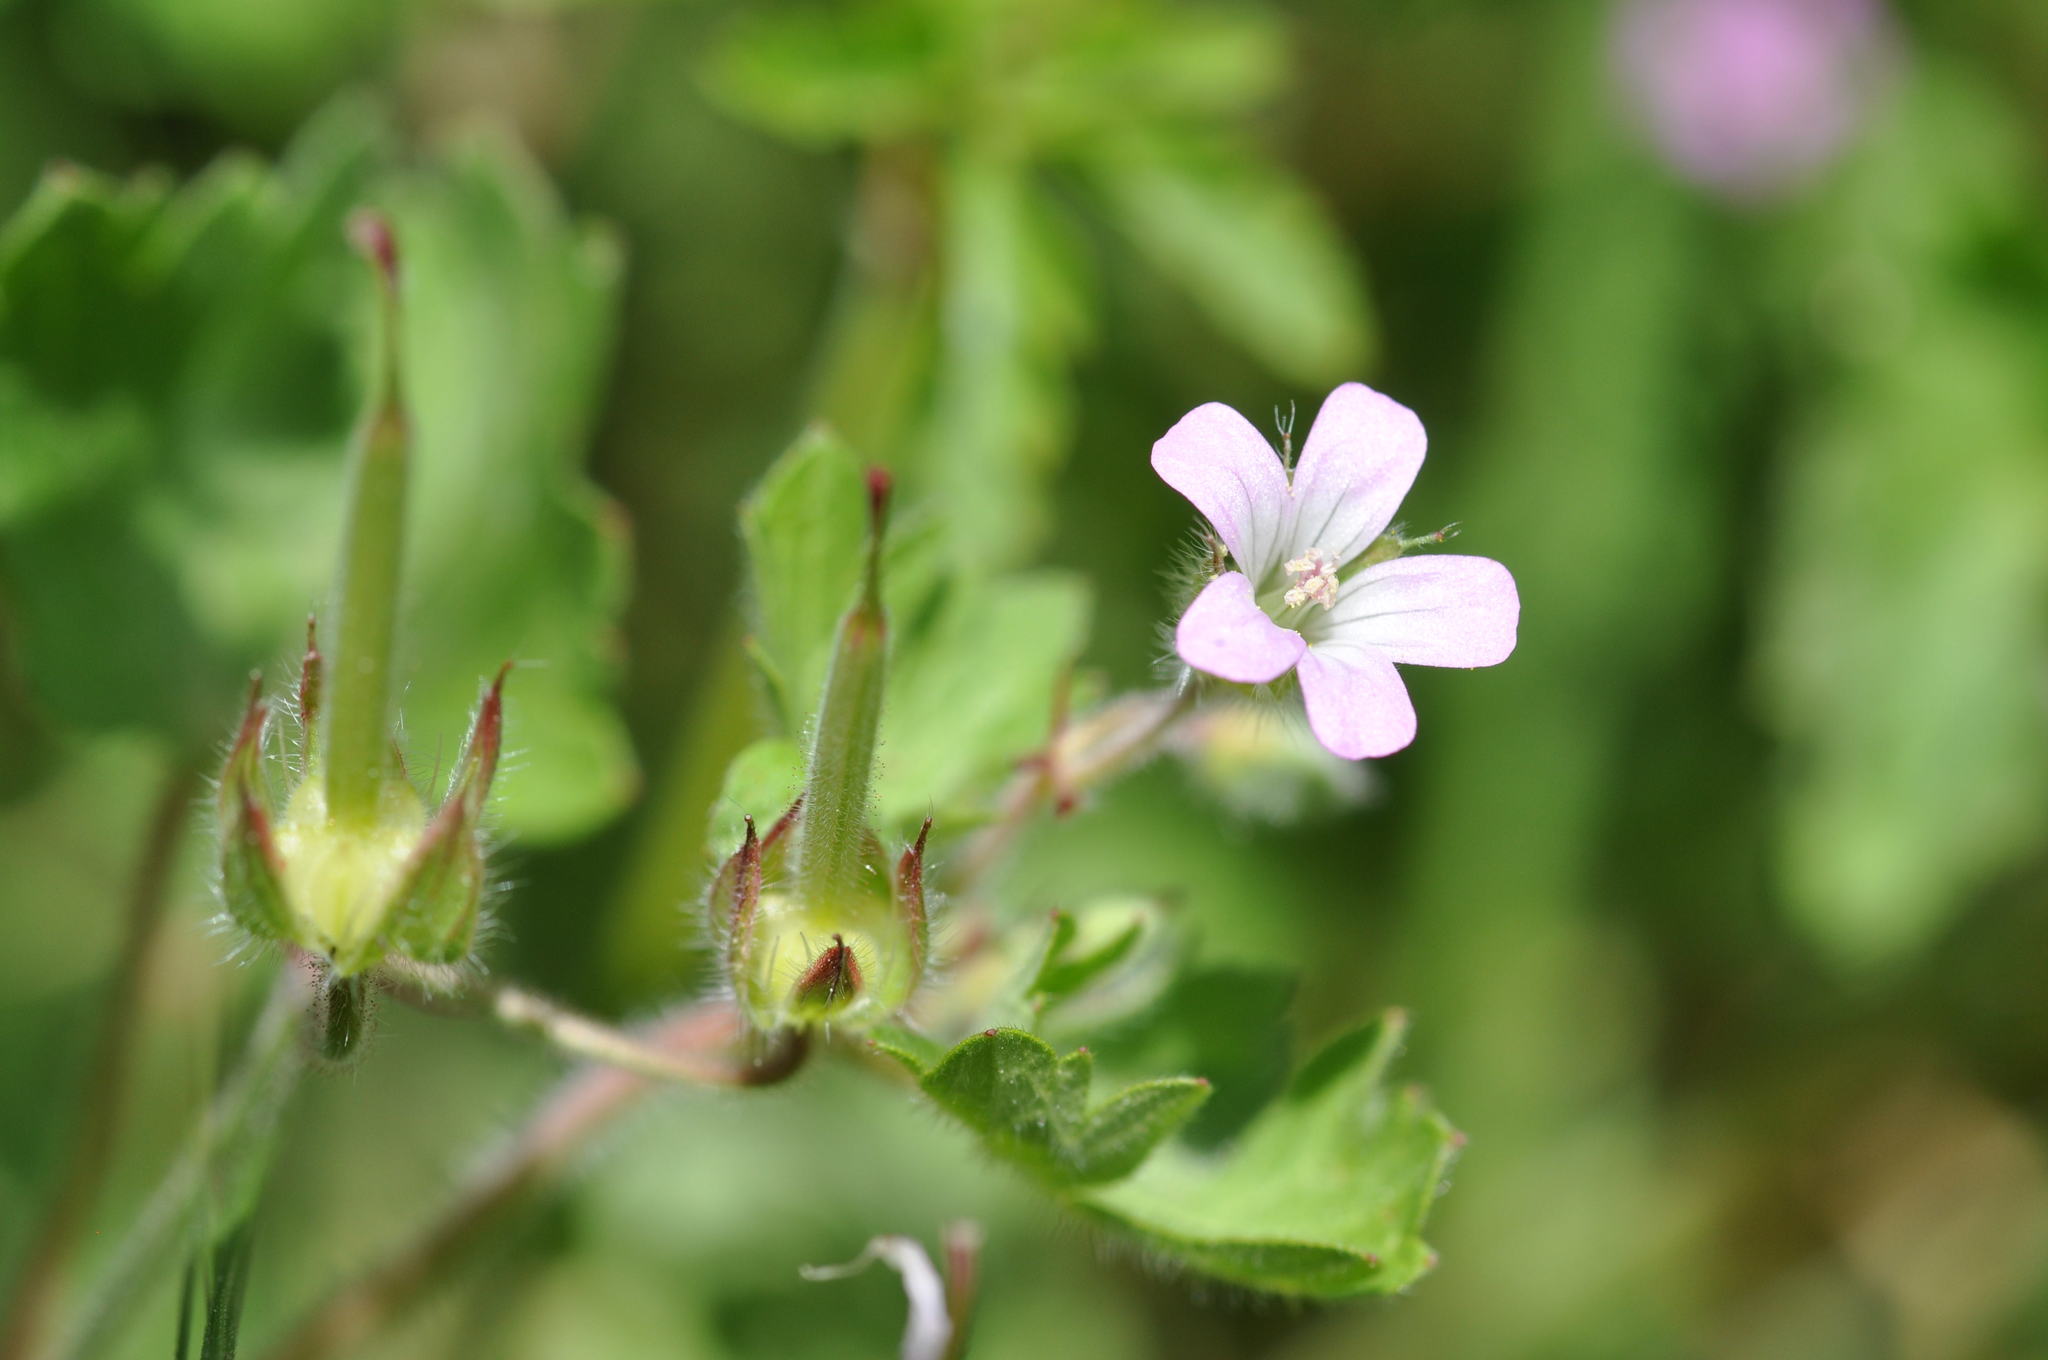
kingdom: Plantae
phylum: Tracheophyta
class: Magnoliopsida
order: Geraniales
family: Geraniaceae
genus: Geranium
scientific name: Geranium rotundifolium
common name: Round-leaved crane's-bill
